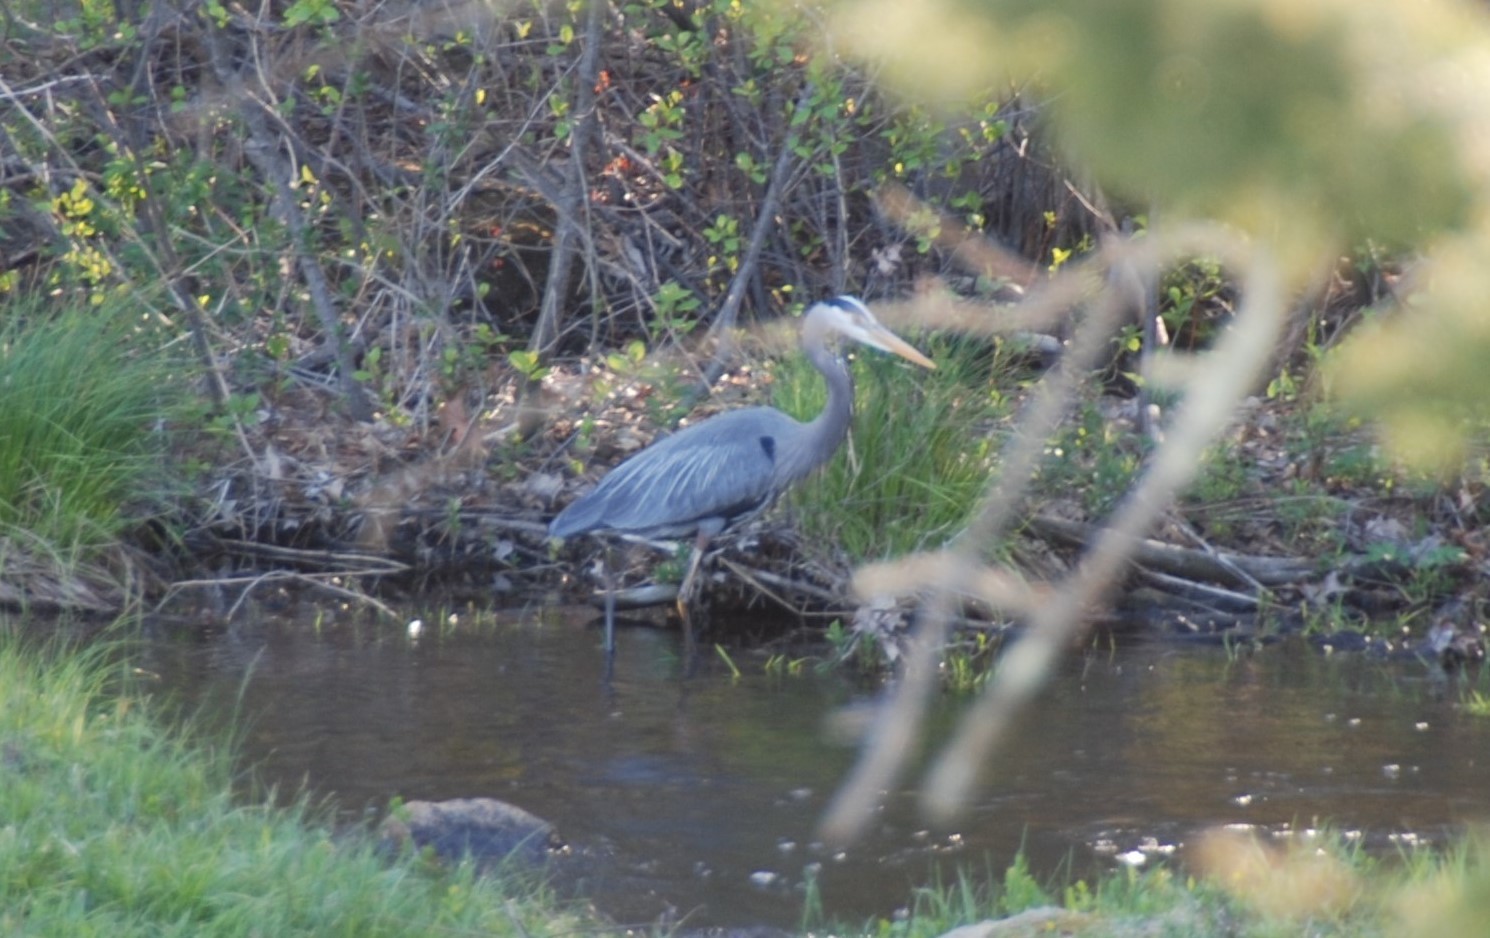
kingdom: Animalia
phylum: Chordata
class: Aves
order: Pelecaniformes
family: Ardeidae
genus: Ardea
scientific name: Ardea herodias
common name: Great blue heron
